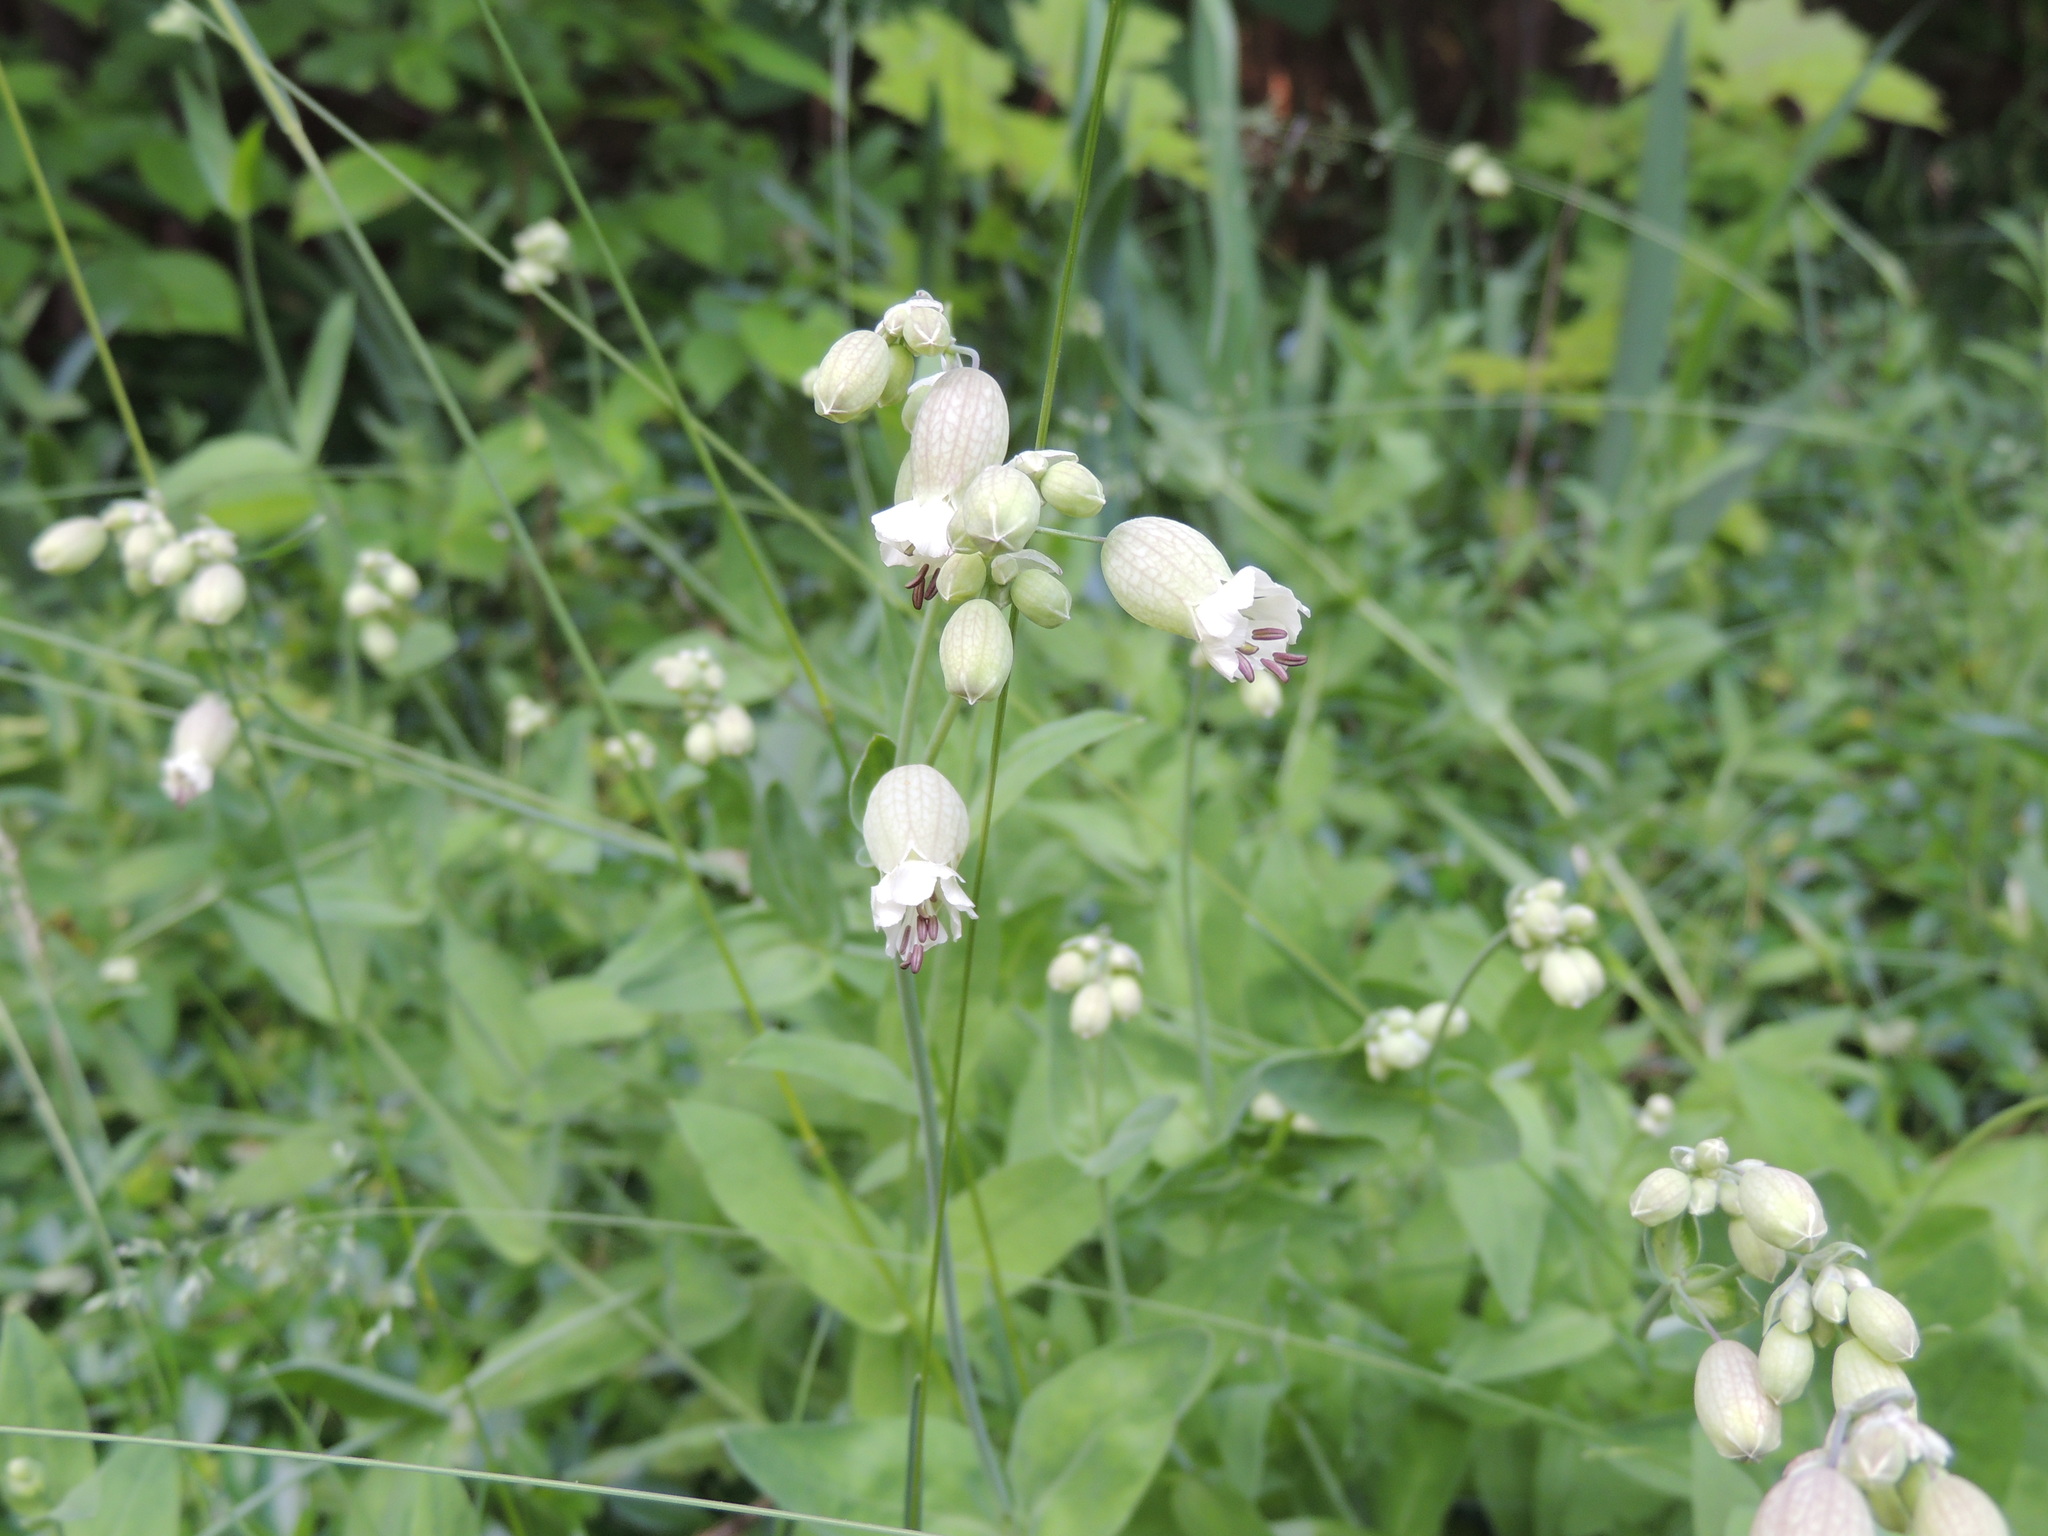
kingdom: Plantae
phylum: Tracheophyta
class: Magnoliopsida
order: Caryophyllales
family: Caryophyllaceae
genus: Silene
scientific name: Silene vulgaris
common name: Bladder campion
